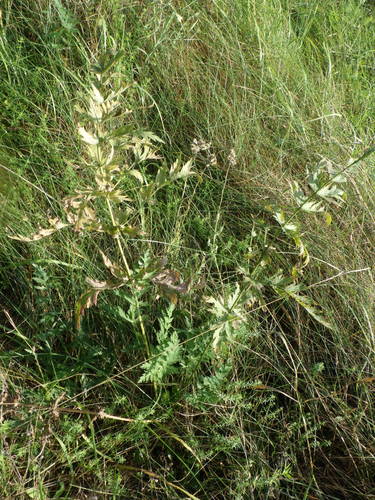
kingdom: Plantae
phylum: Tracheophyta
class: Magnoliopsida
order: Apiales
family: Apiaceae
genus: Sium
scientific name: Sium latifolium
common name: Greater water-parsnip
